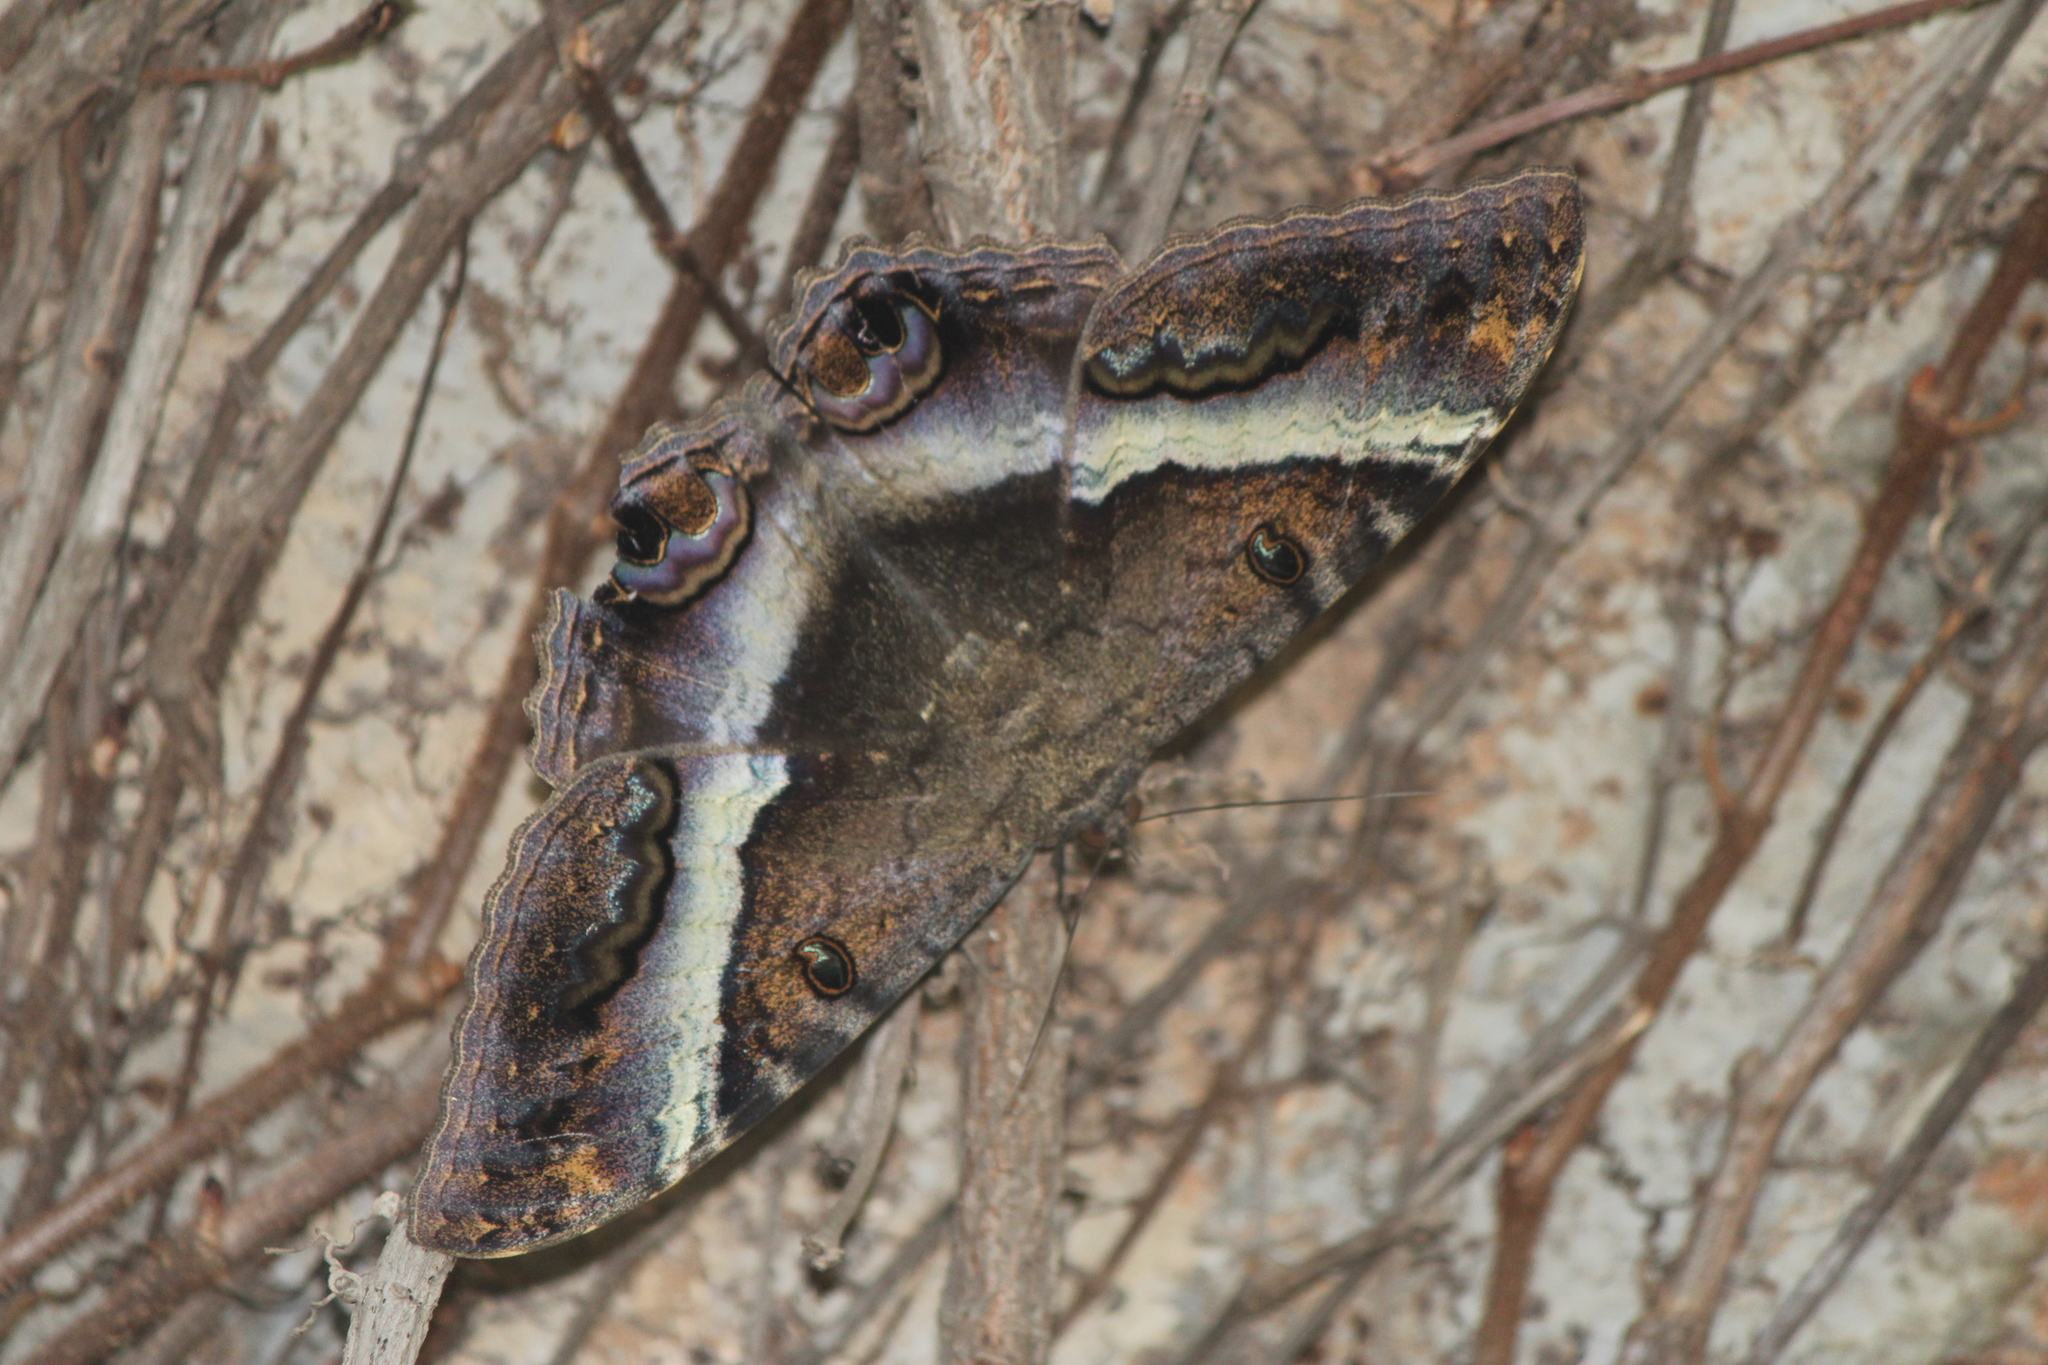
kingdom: Animalia
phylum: Arthropoda
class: Insecta
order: Lepidoptera
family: Erebidae
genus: Ascalapha
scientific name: Ascalapha odorata
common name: Black witch
